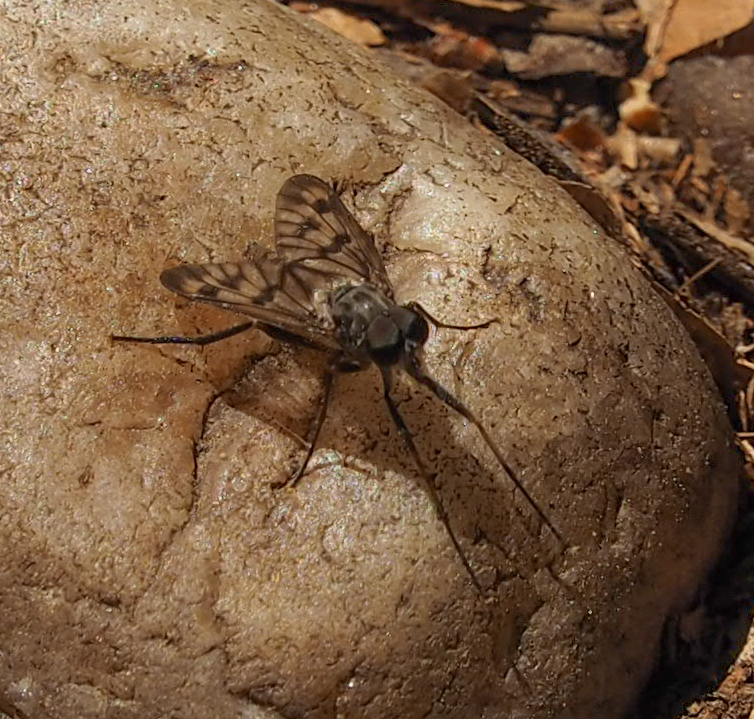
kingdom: Animalia
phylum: Arthropoda
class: Insecta
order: Diptera
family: Rhagionidae
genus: Rhagio
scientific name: Rhagio mystaceus
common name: Common snipe fly
